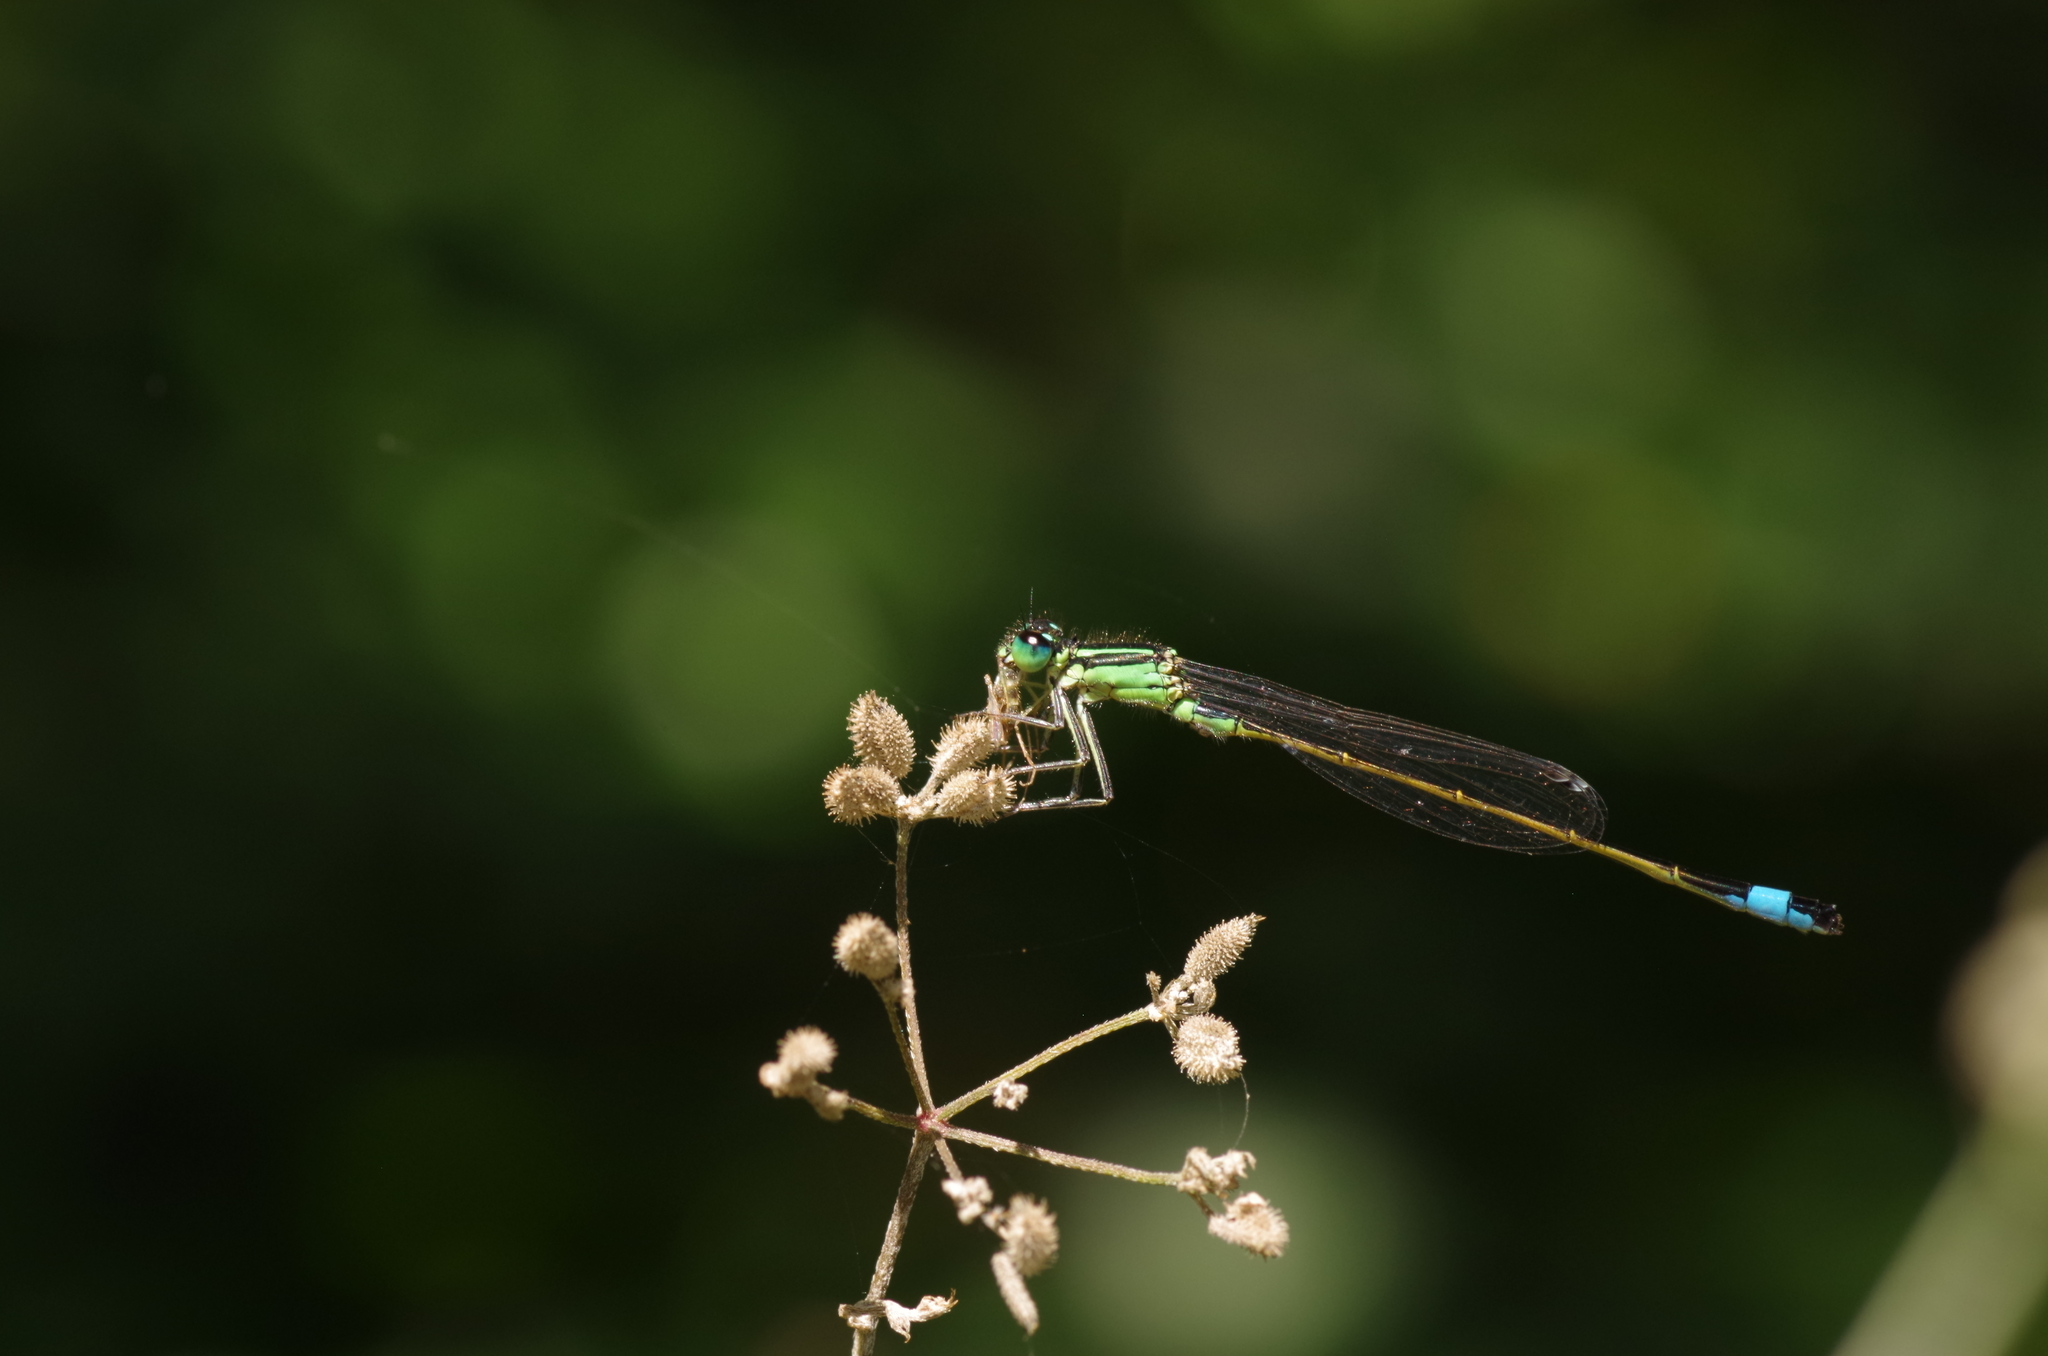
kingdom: Animalia
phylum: Arthropoda
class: Insecta
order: Odonata
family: Coenagrionidae
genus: Ischnura
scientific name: Ischnura elegans
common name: Blue-tailed damselfly
